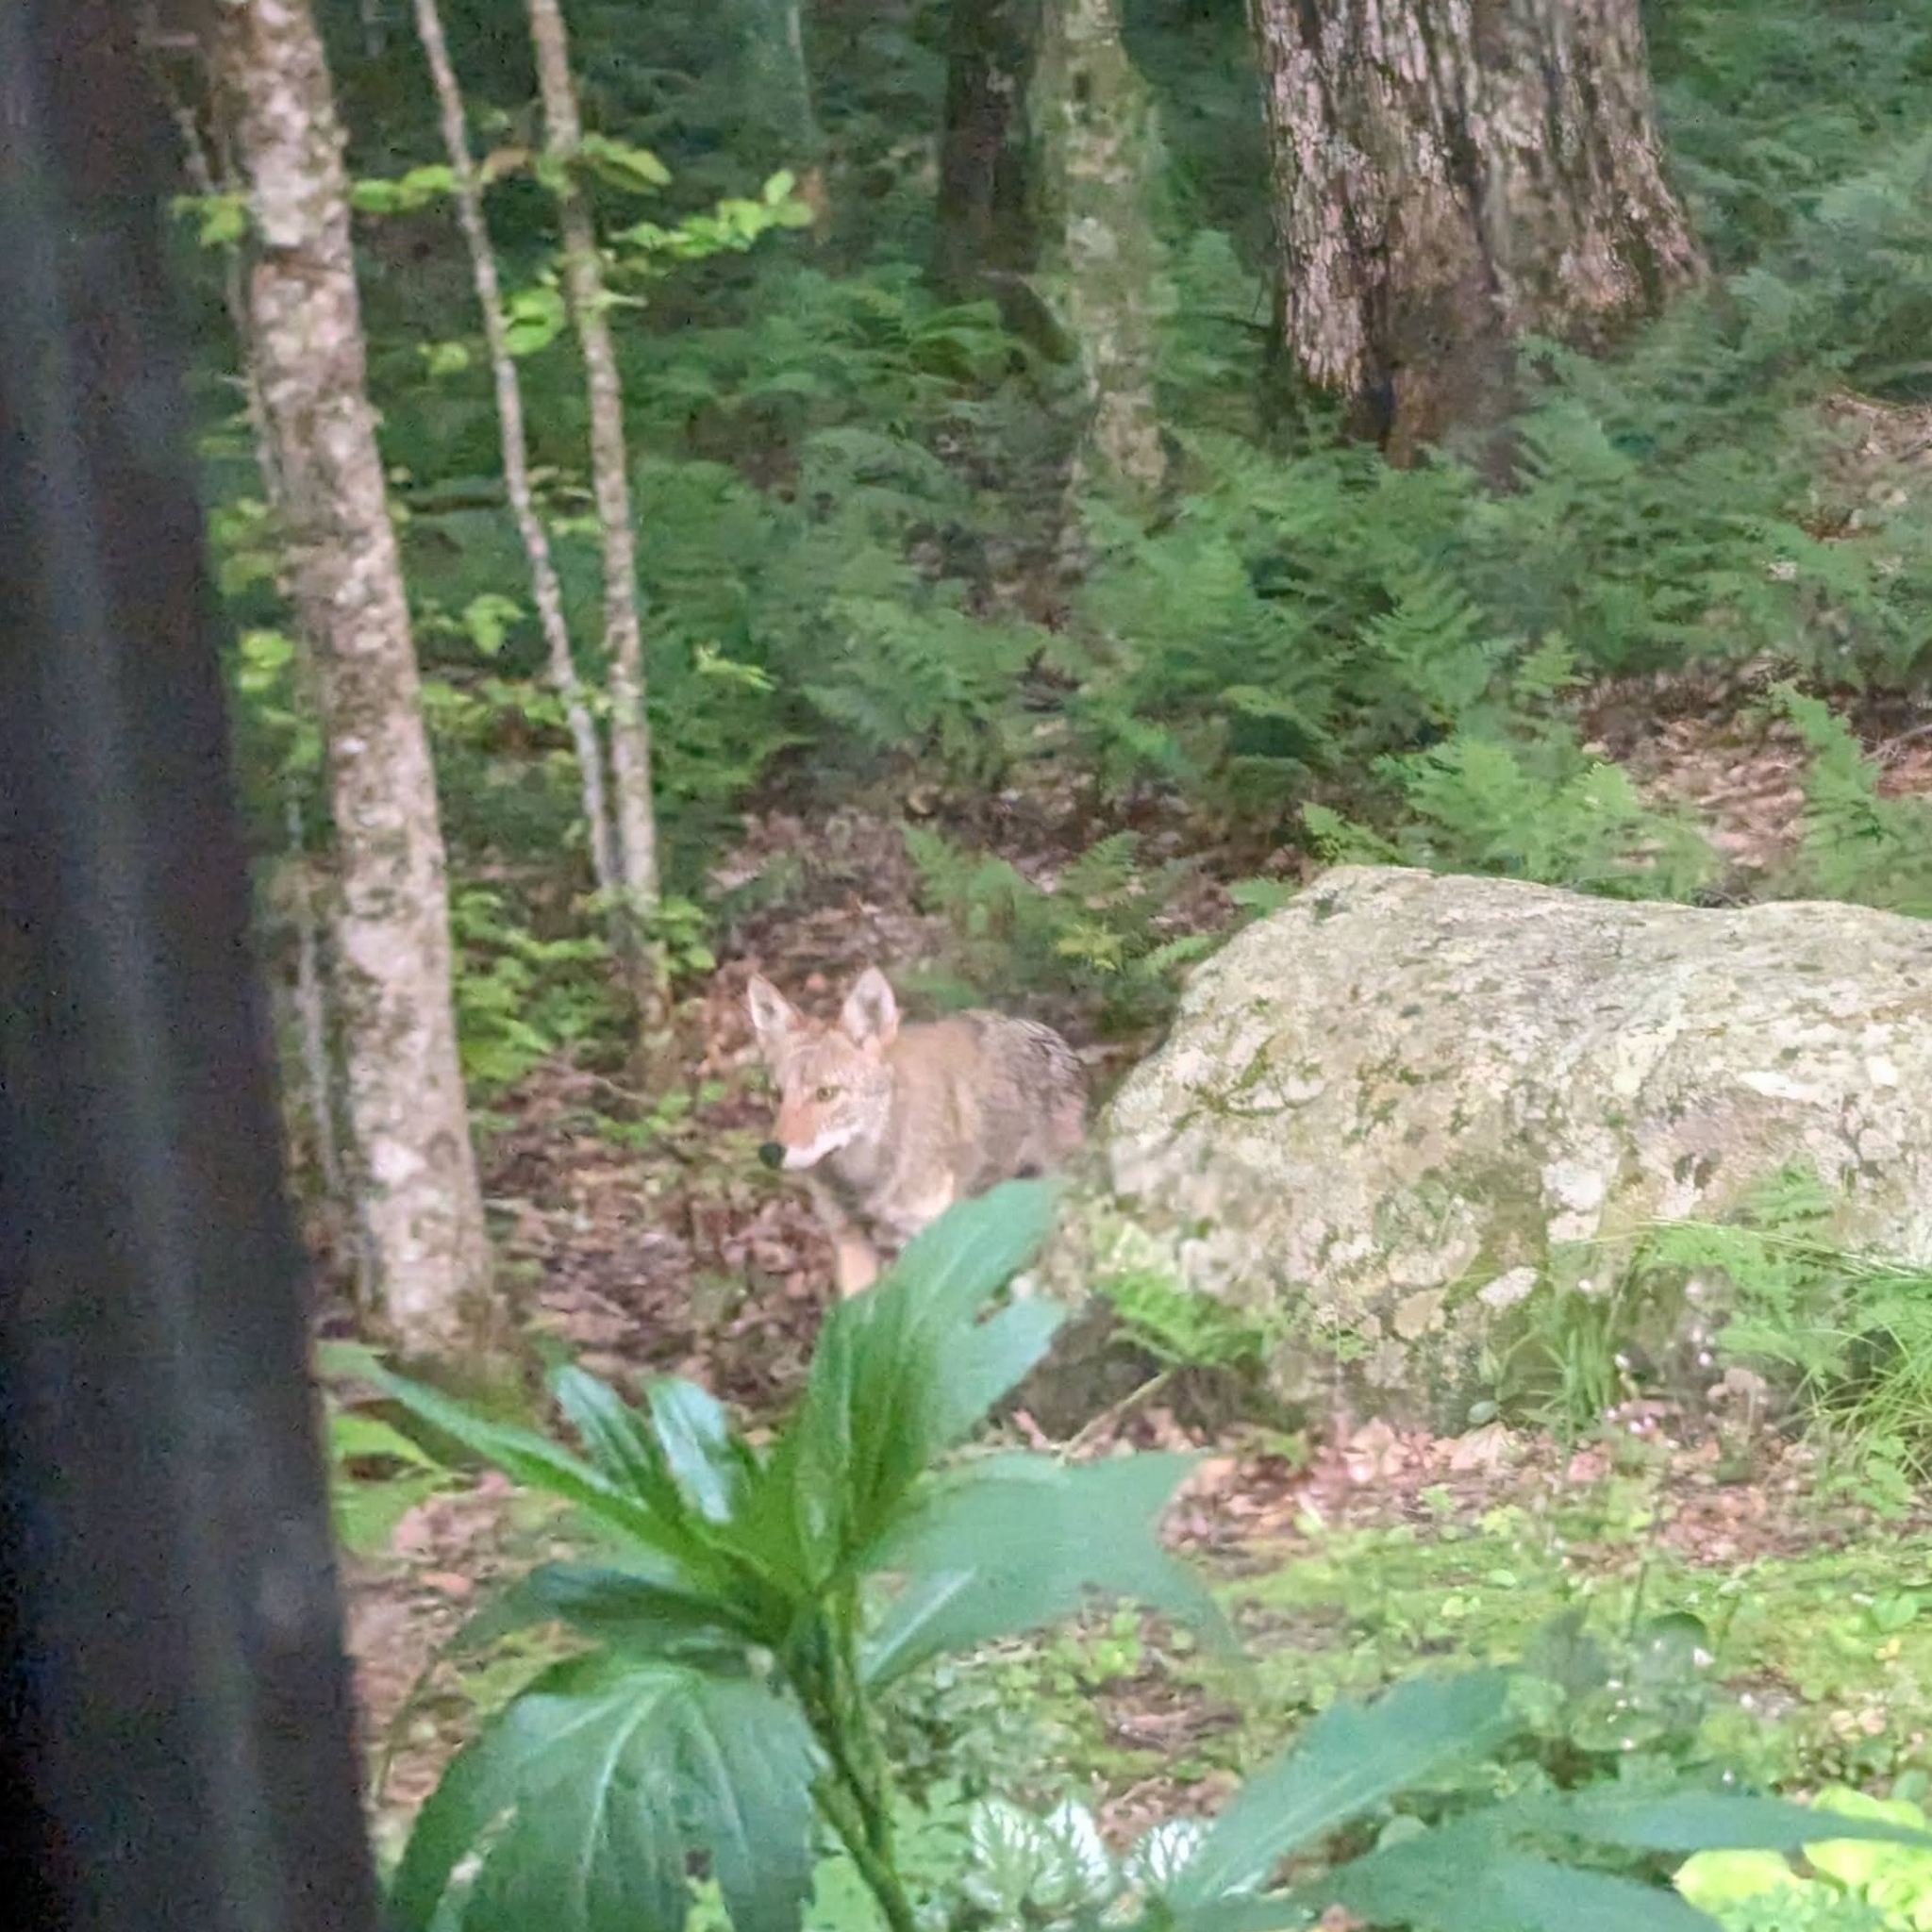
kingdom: Animalia
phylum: Chordata
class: Mammalia
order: Carnivora
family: Canidae
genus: Canis
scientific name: Canis latrans
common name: Coyote
